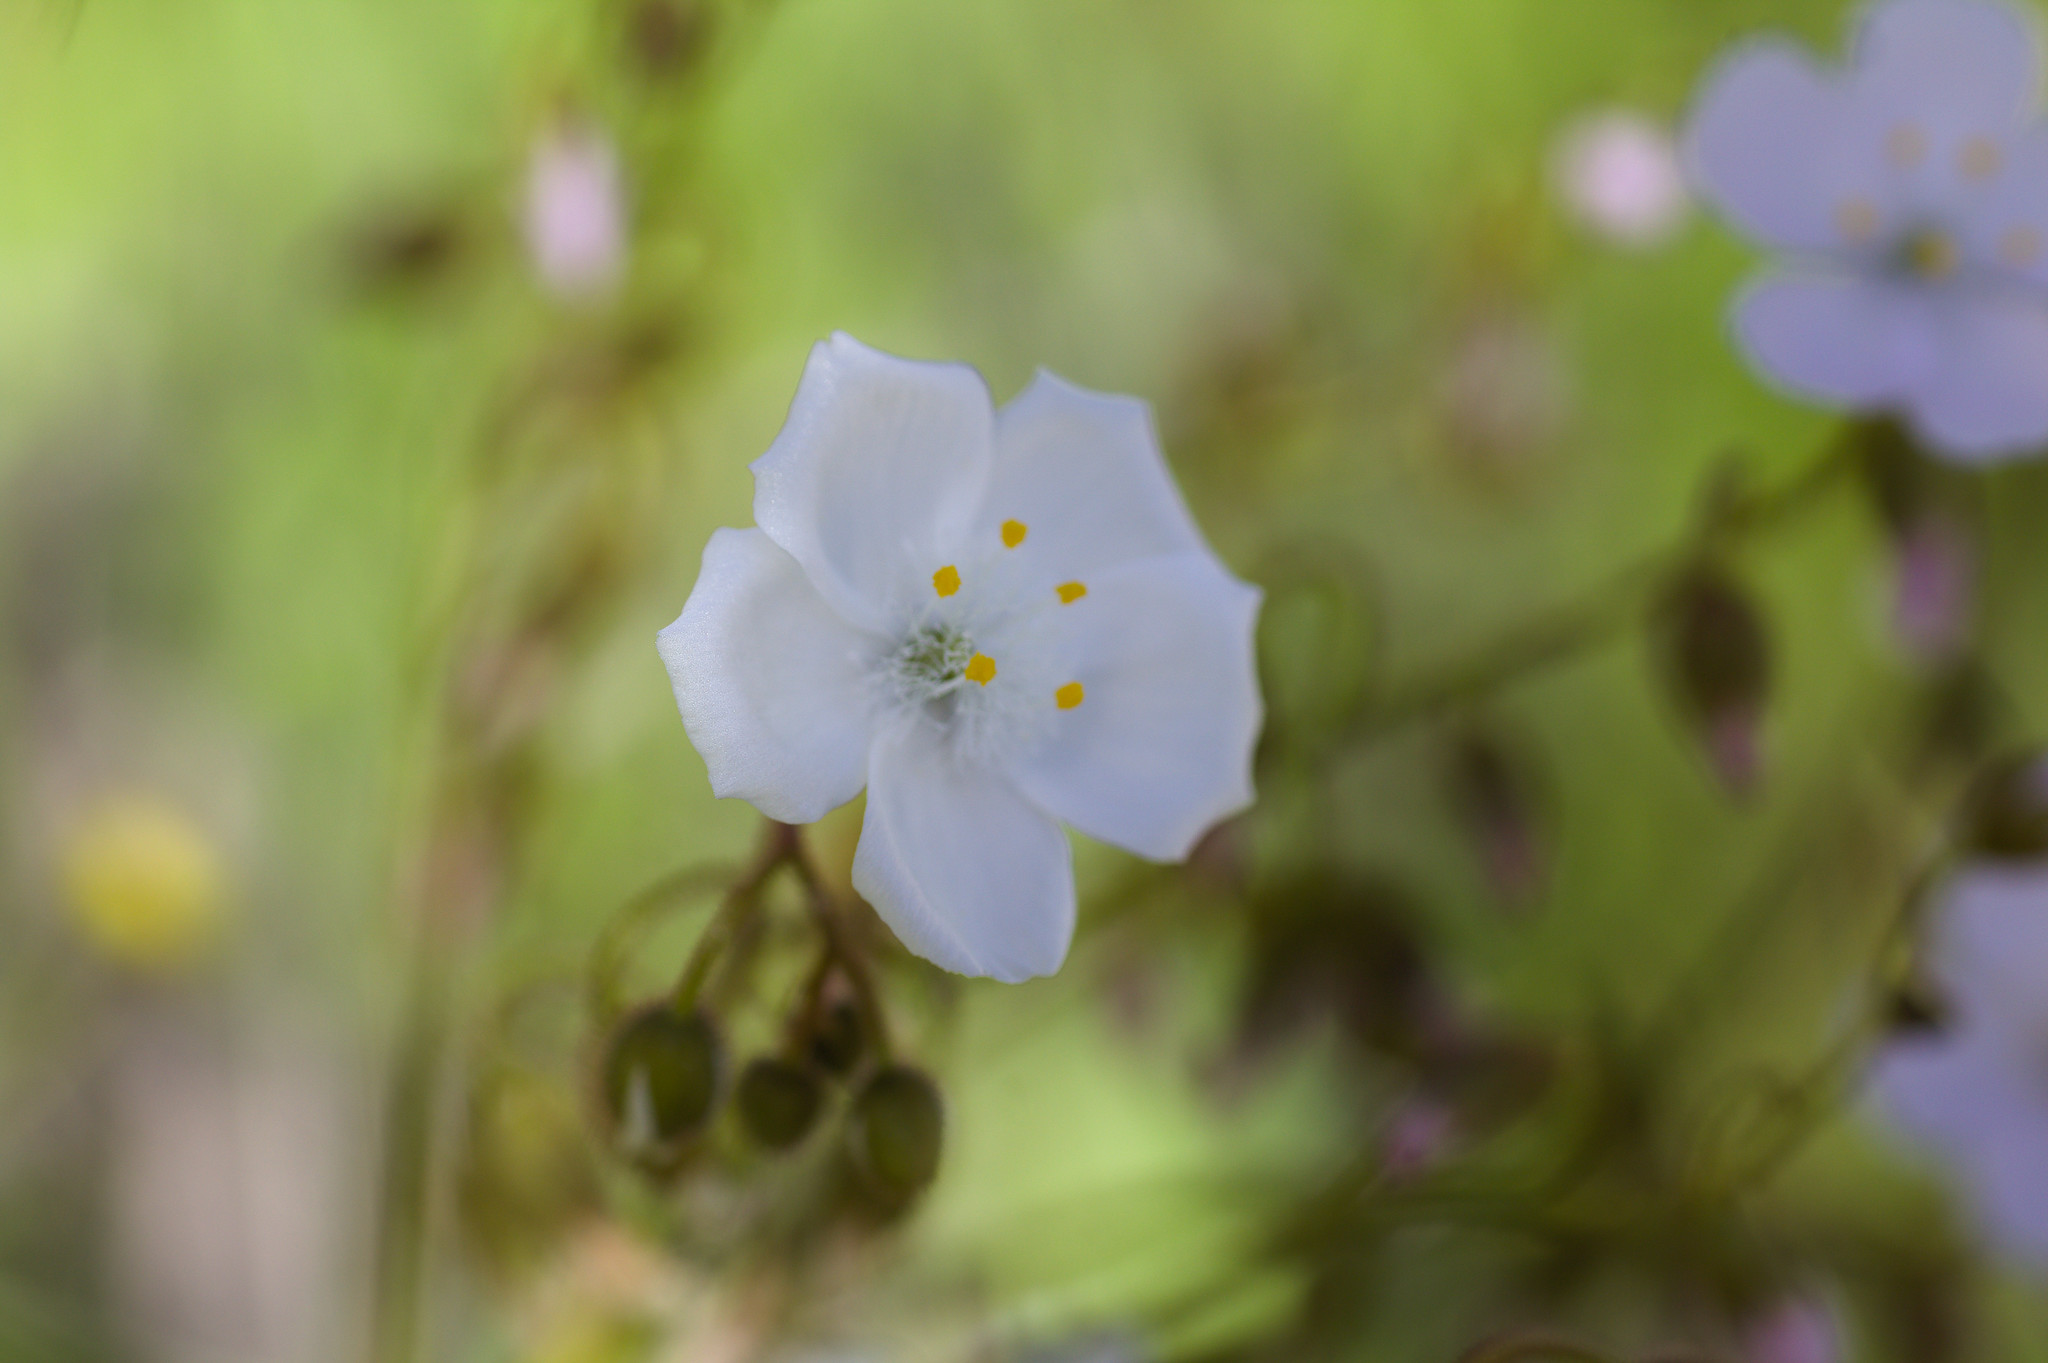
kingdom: Plantae
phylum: Tracheophyta
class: Magnoliopsida
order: Caryophyllales
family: Droseraceae
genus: Drosera
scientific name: Drosera stricticaulis
